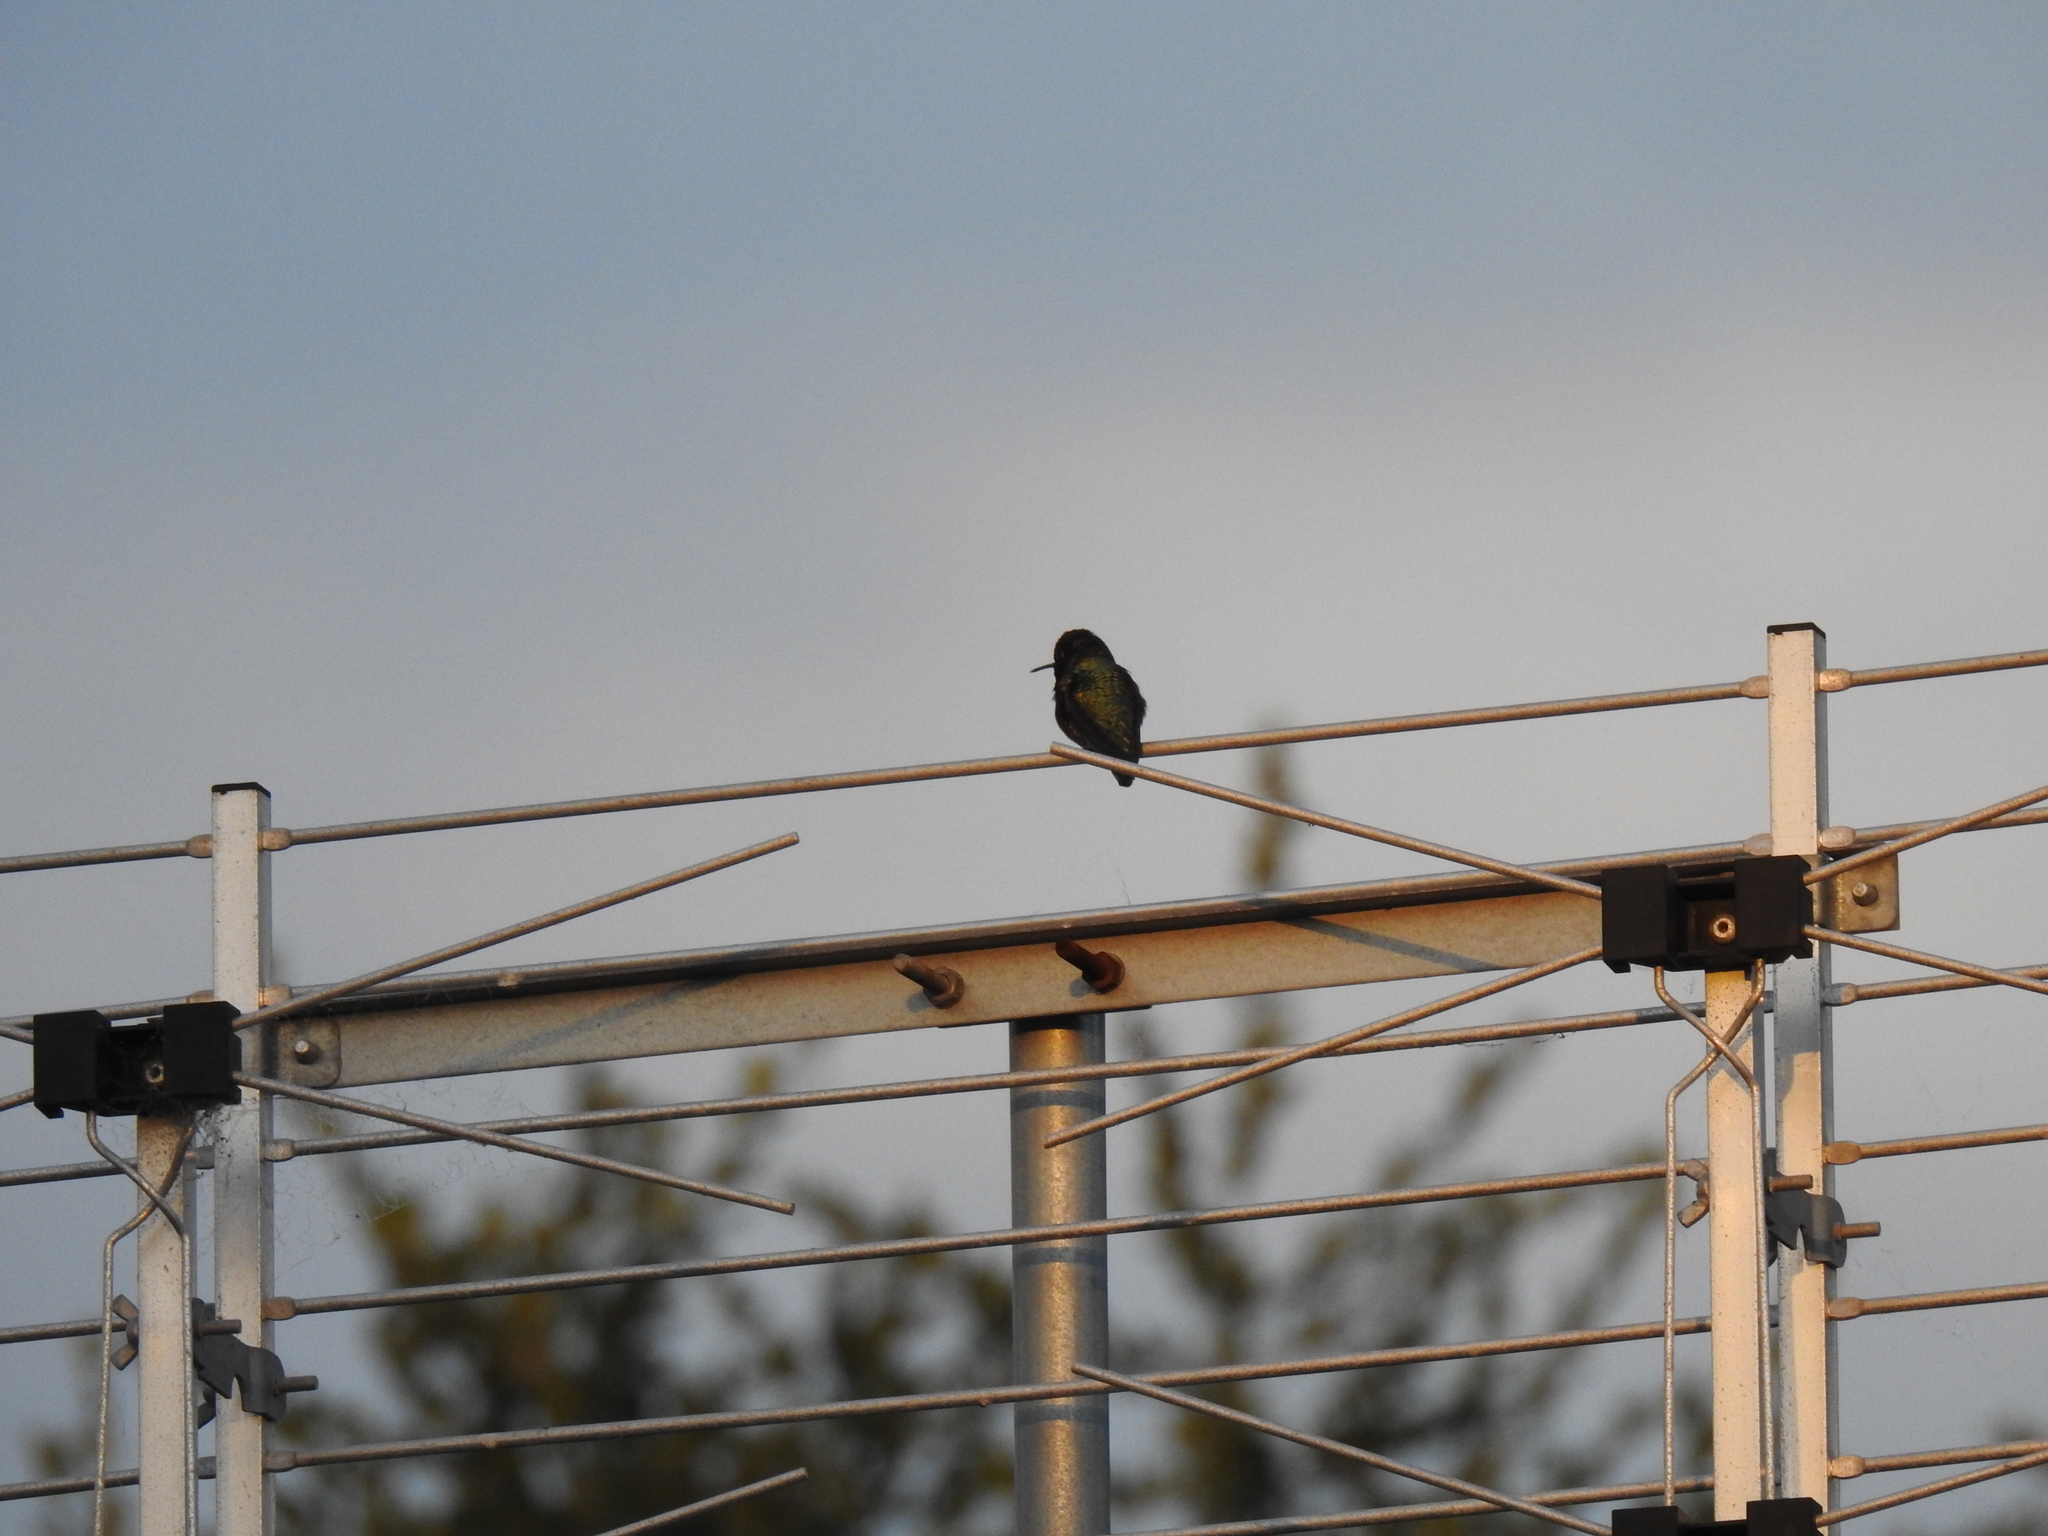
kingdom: Animalia
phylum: Chordata
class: Aves
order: Apodiformes
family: Trochilidae
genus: Calypte
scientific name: Calypte anna
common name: Anna's hummingbird
